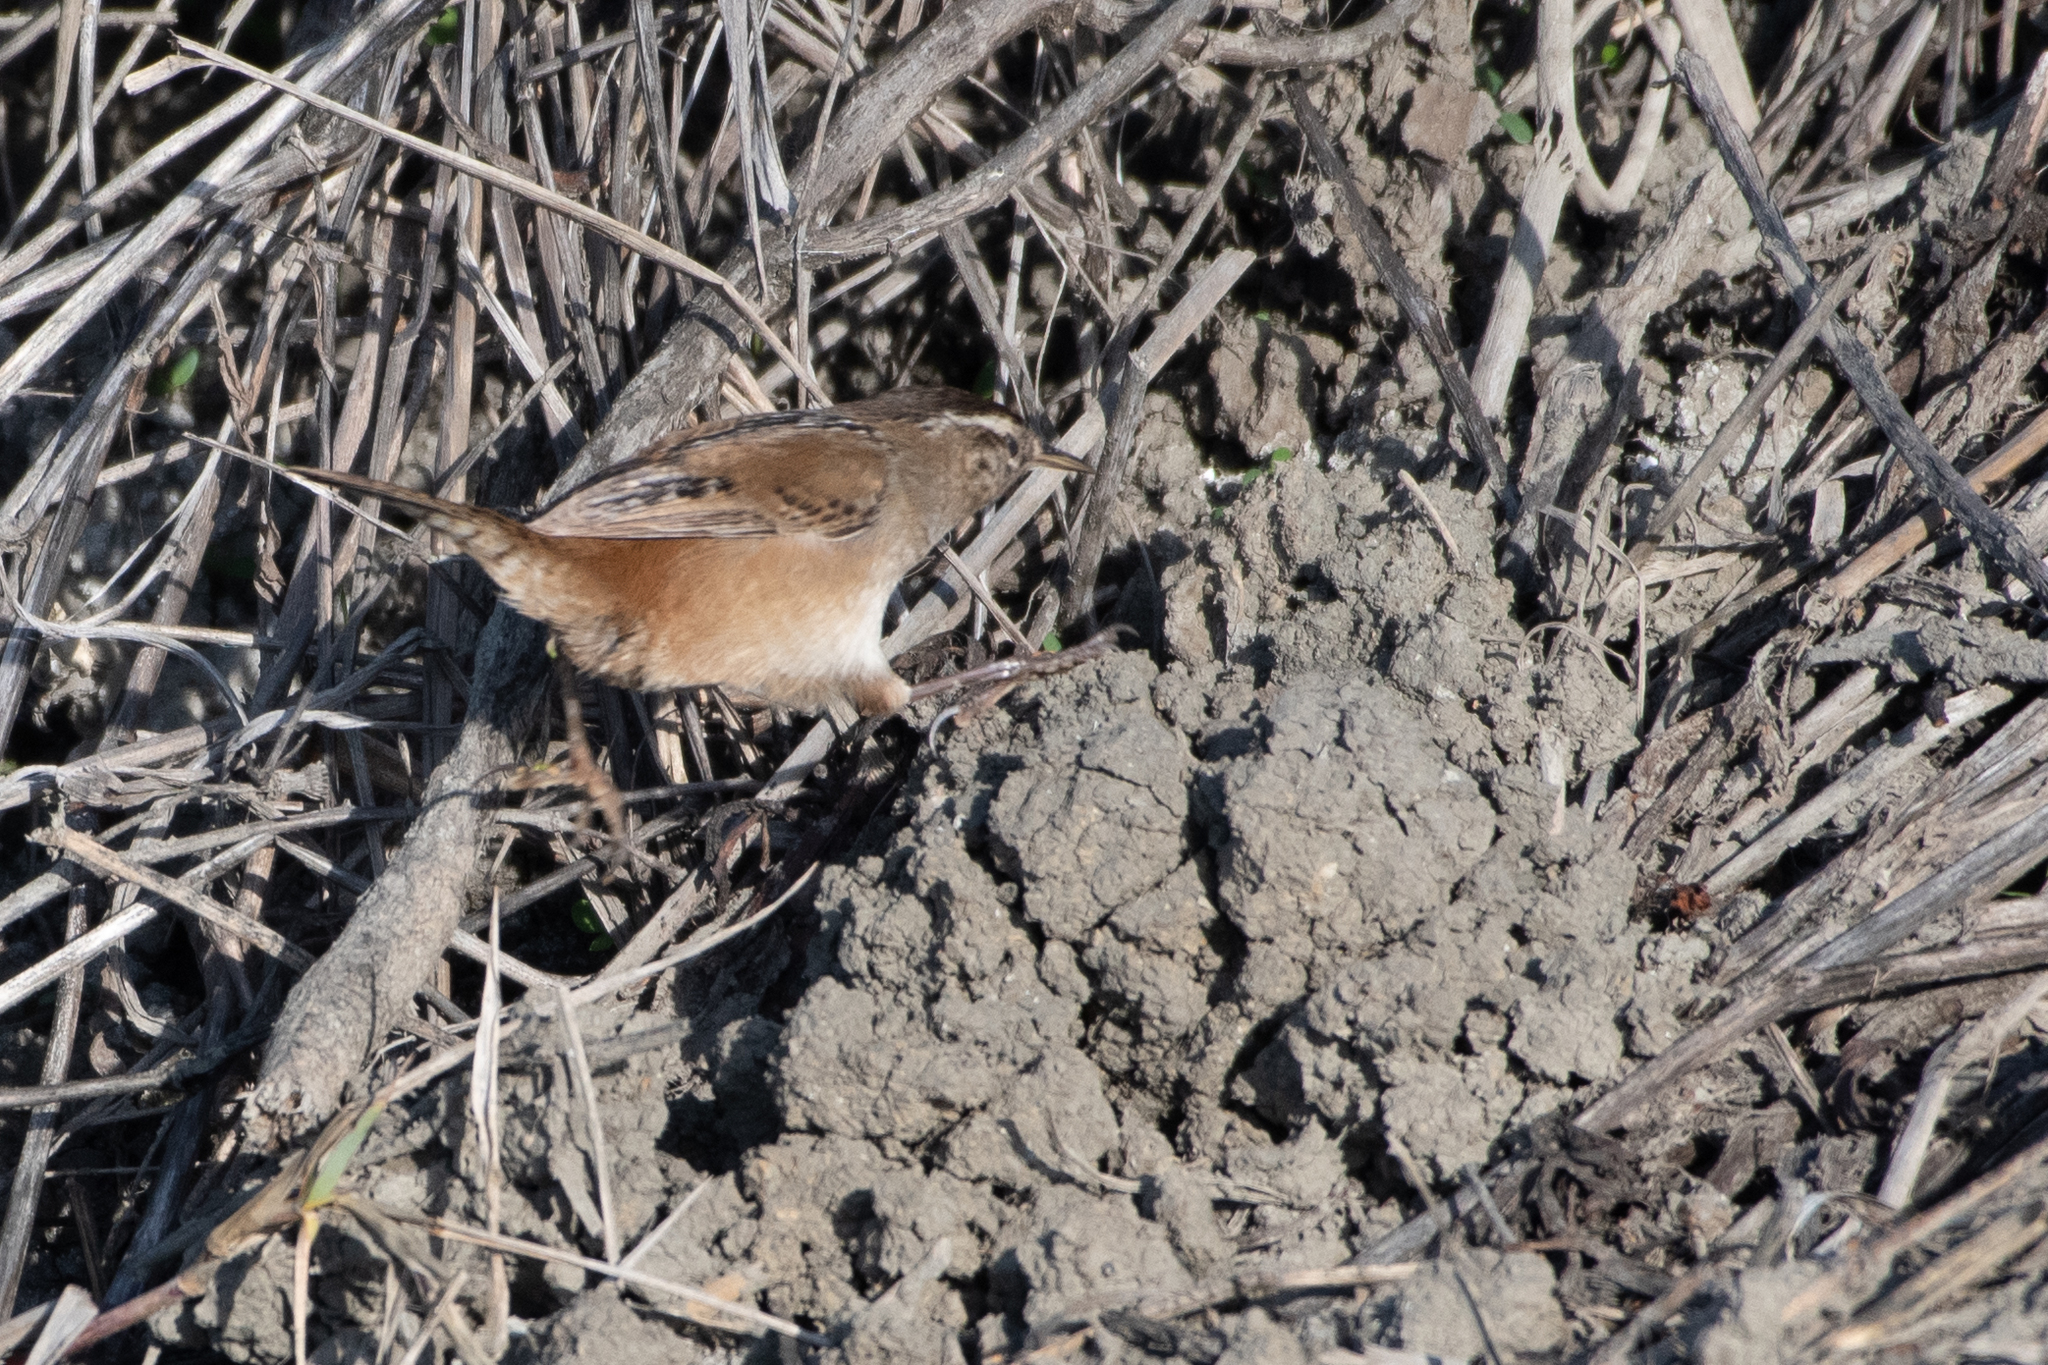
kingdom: Animalia
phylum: Chordata
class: Aves
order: Passeriformes
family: Troglodytidae
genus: Cistothorus
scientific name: Cistothorus palustris
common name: Marsh wren
